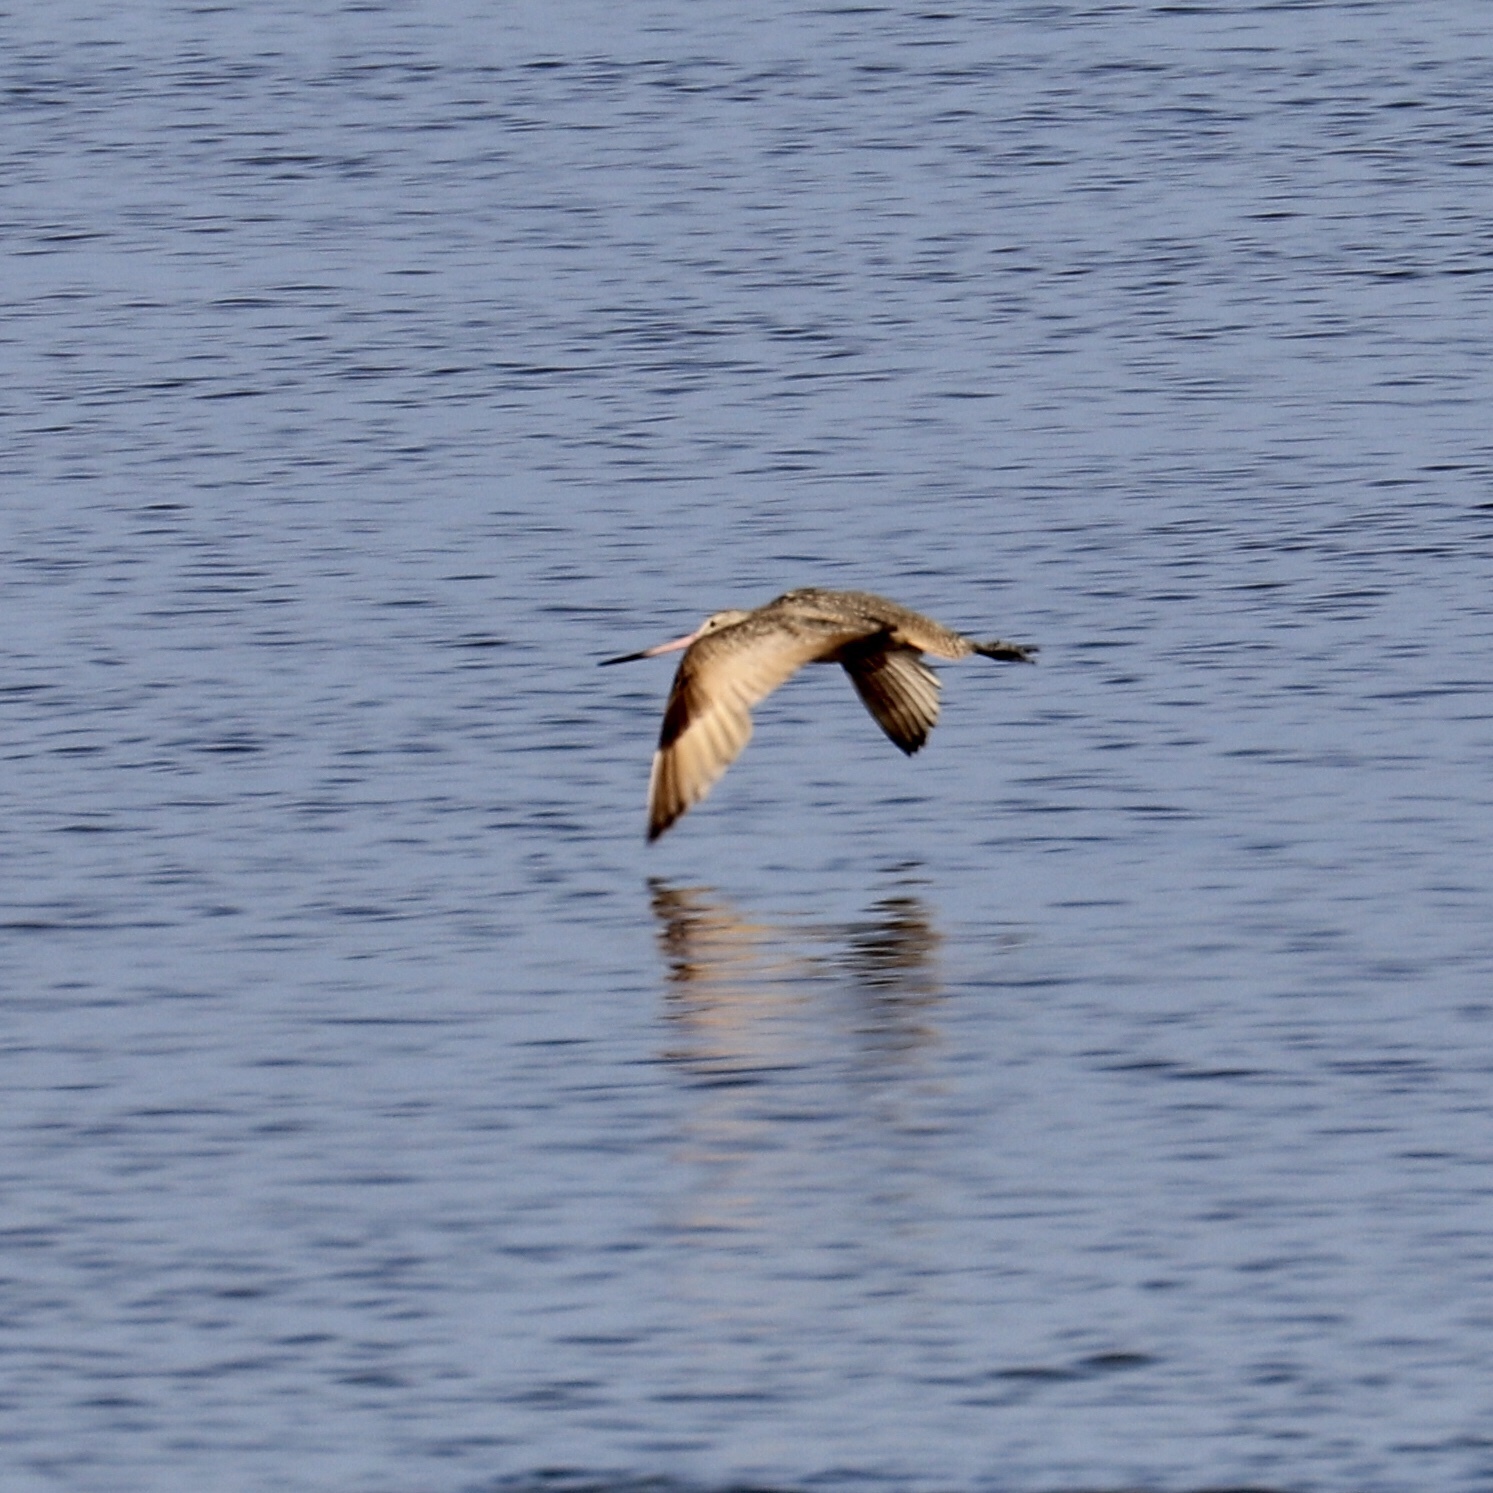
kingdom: Animalia
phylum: Chordata
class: Aves
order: Charadriiformes
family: Scolopacidae
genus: Limosa
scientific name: Limosa fedoa
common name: Marbled godwit
